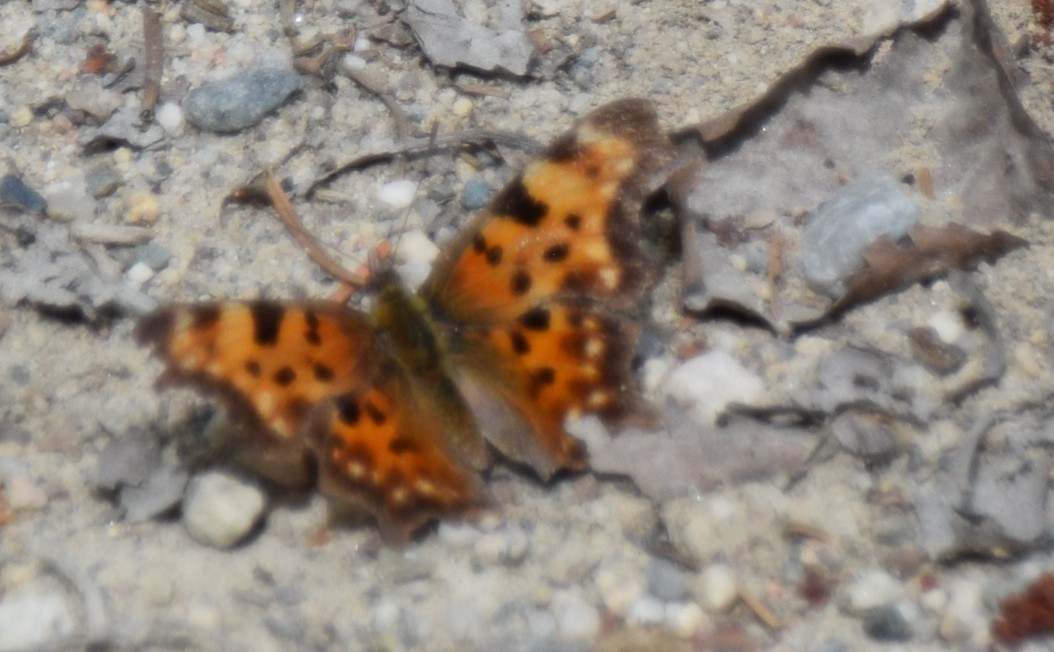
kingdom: Animalia
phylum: Arthropoda
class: Insecta
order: Lepidoptera
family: Nymphalidae
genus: Polygonia
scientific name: Polygonia faunus
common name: Green comma
